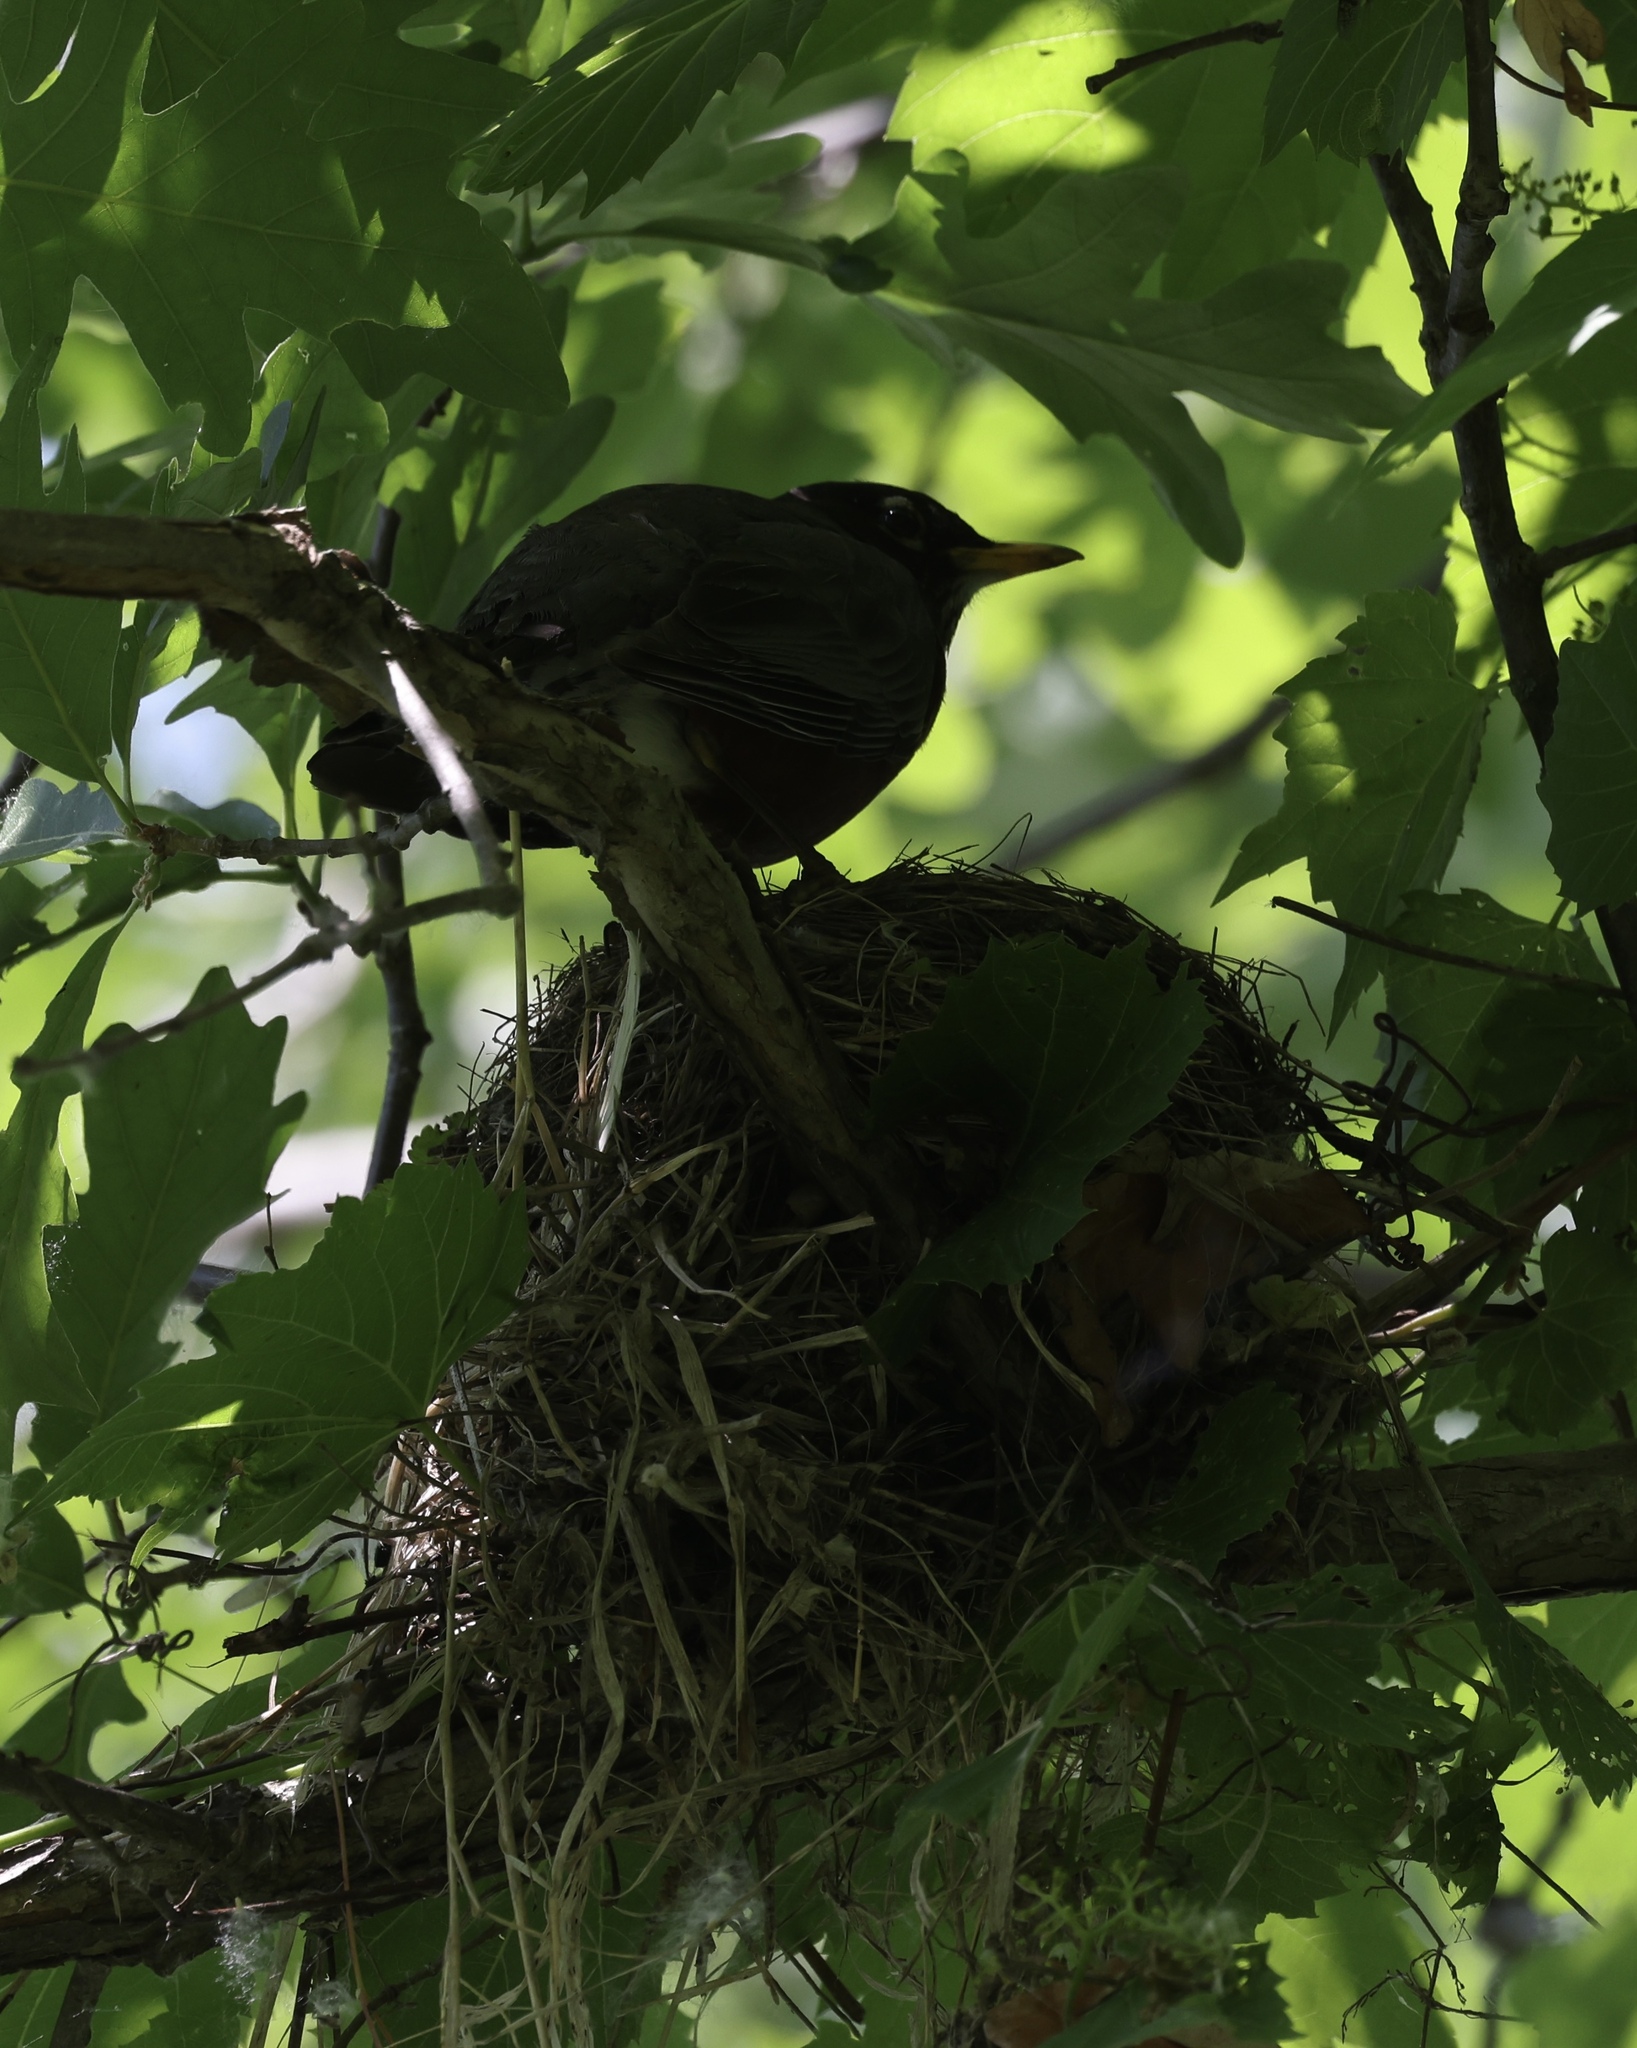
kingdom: Animalia
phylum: Chordata
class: Aves
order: Passeriformes
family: Turdidae
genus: Turdus
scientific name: Turdus migratorius
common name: American robin
